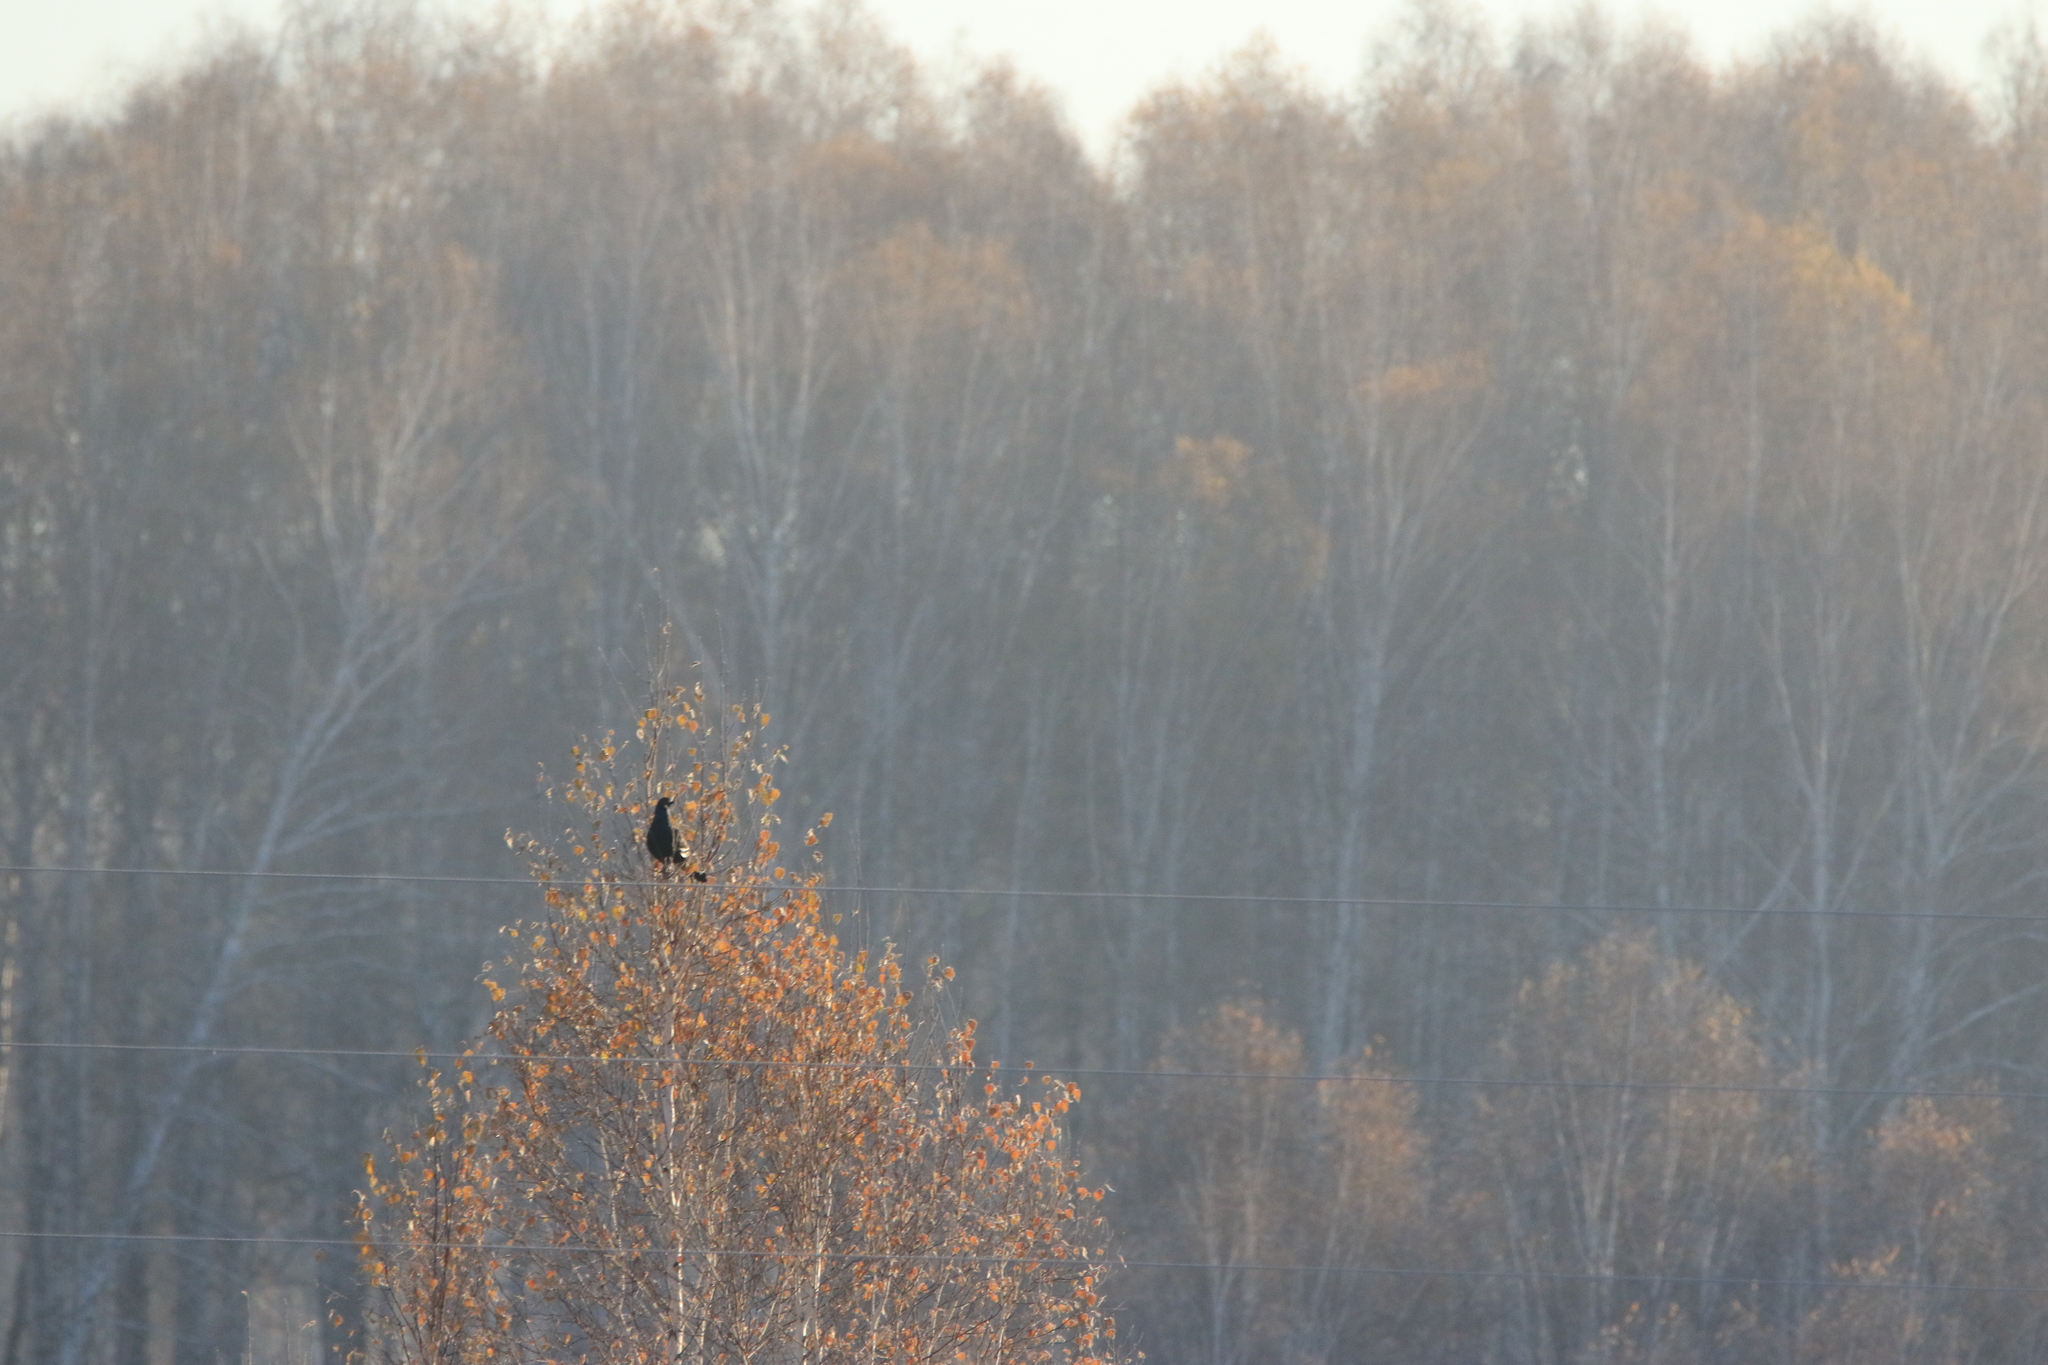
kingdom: Animalia
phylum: Chordata
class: Aves
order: Galliformes
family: Phasianidae
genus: Lyrurus
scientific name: Lyrurus tetrix
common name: Black grouse
